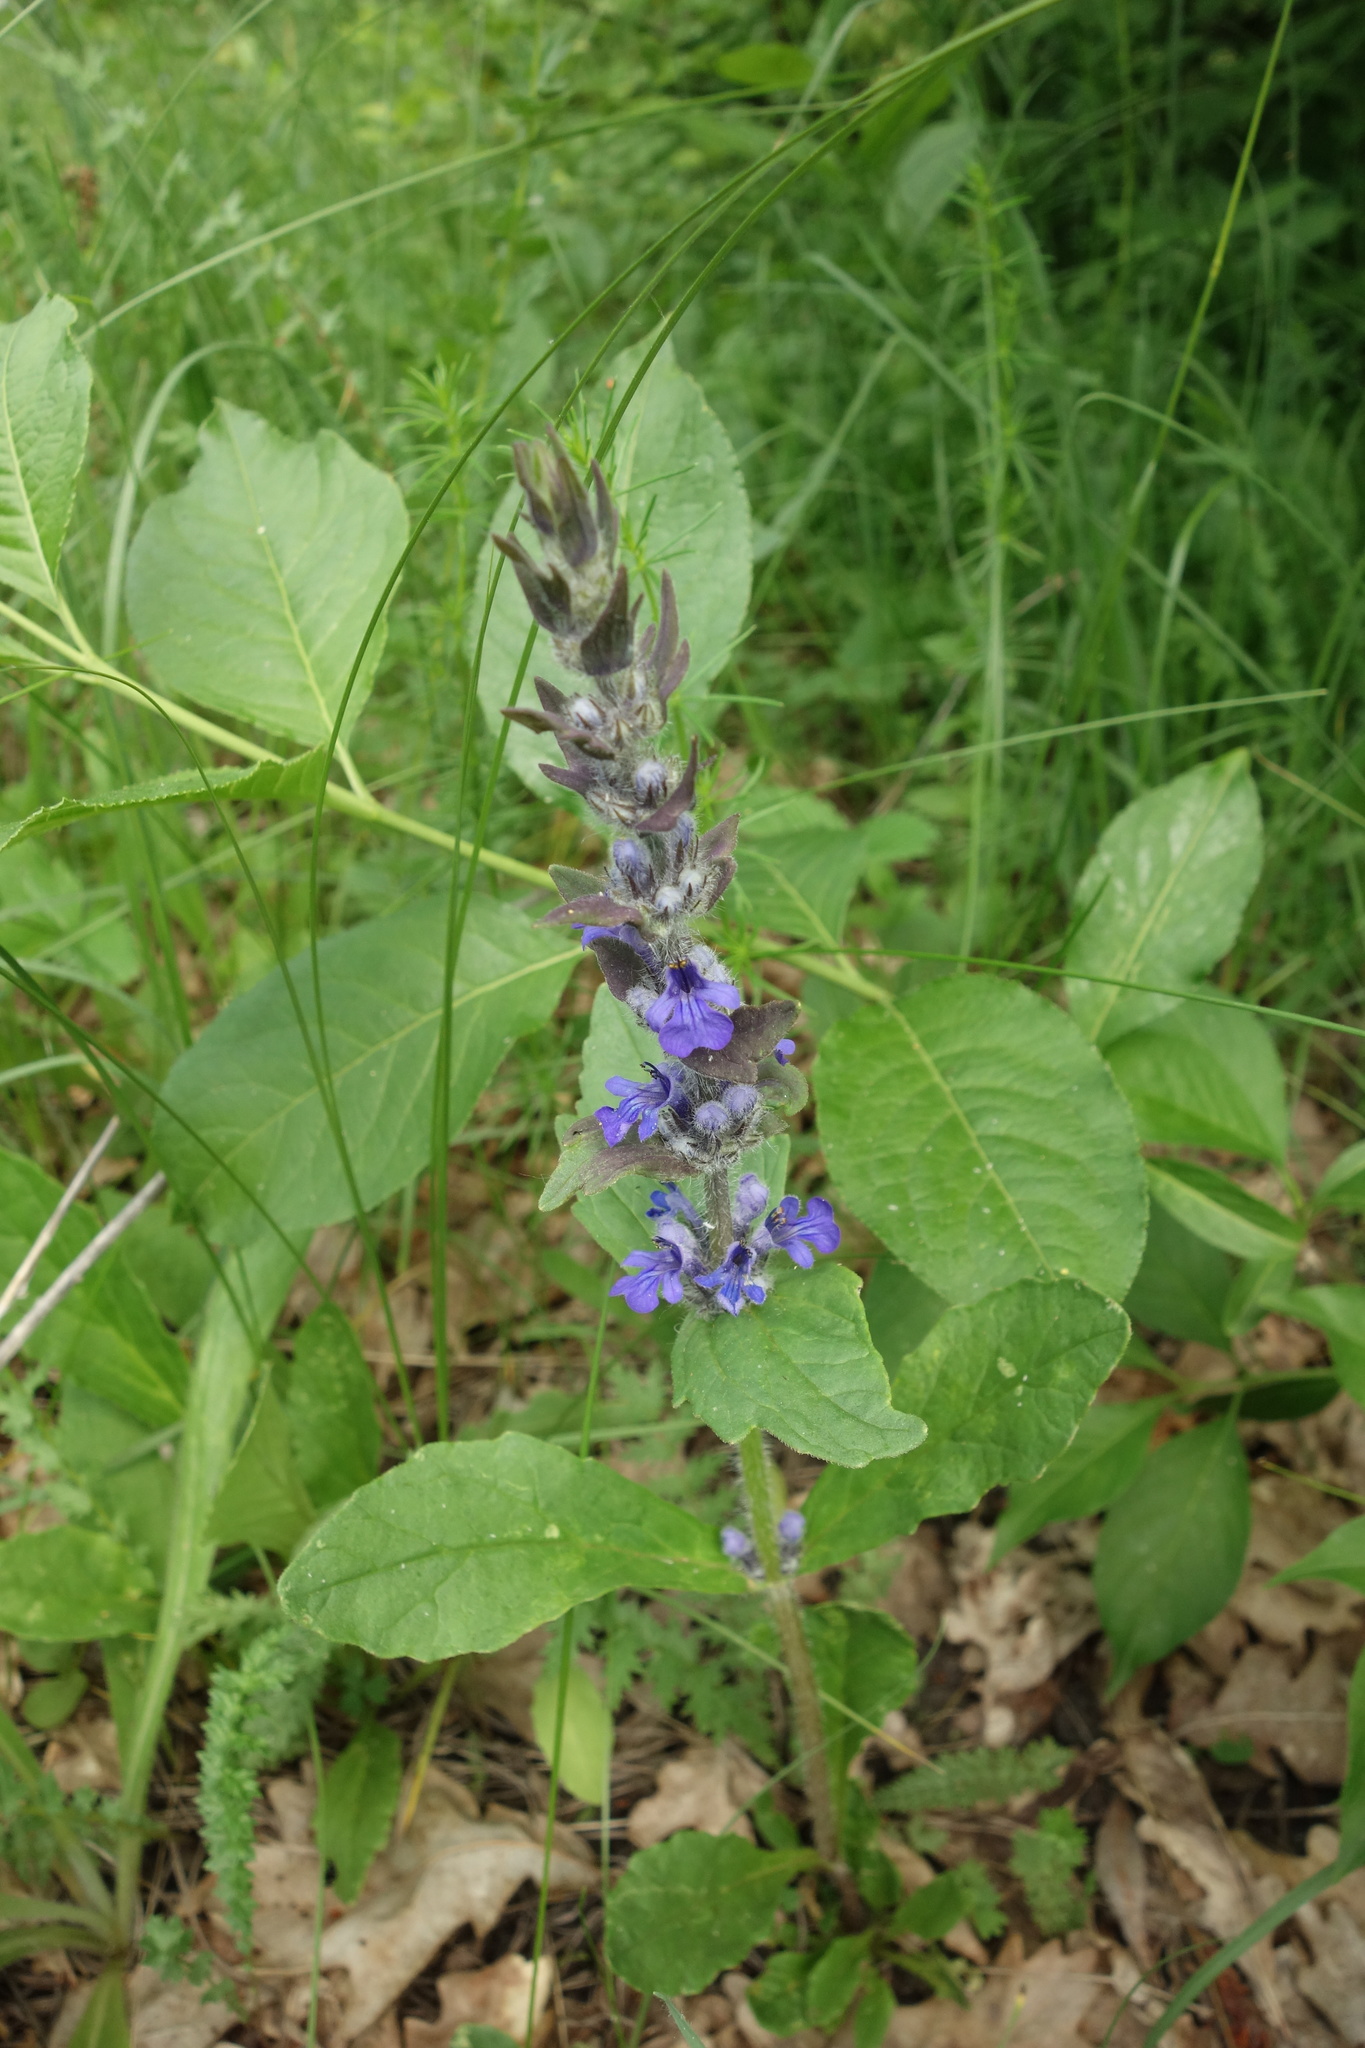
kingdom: Plantae
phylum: Tracheophyta
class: Magnoliopsida
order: Lamiales
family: Lamiaceae
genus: Ajuga
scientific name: Ajuga genevensis
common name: Blue bugle
